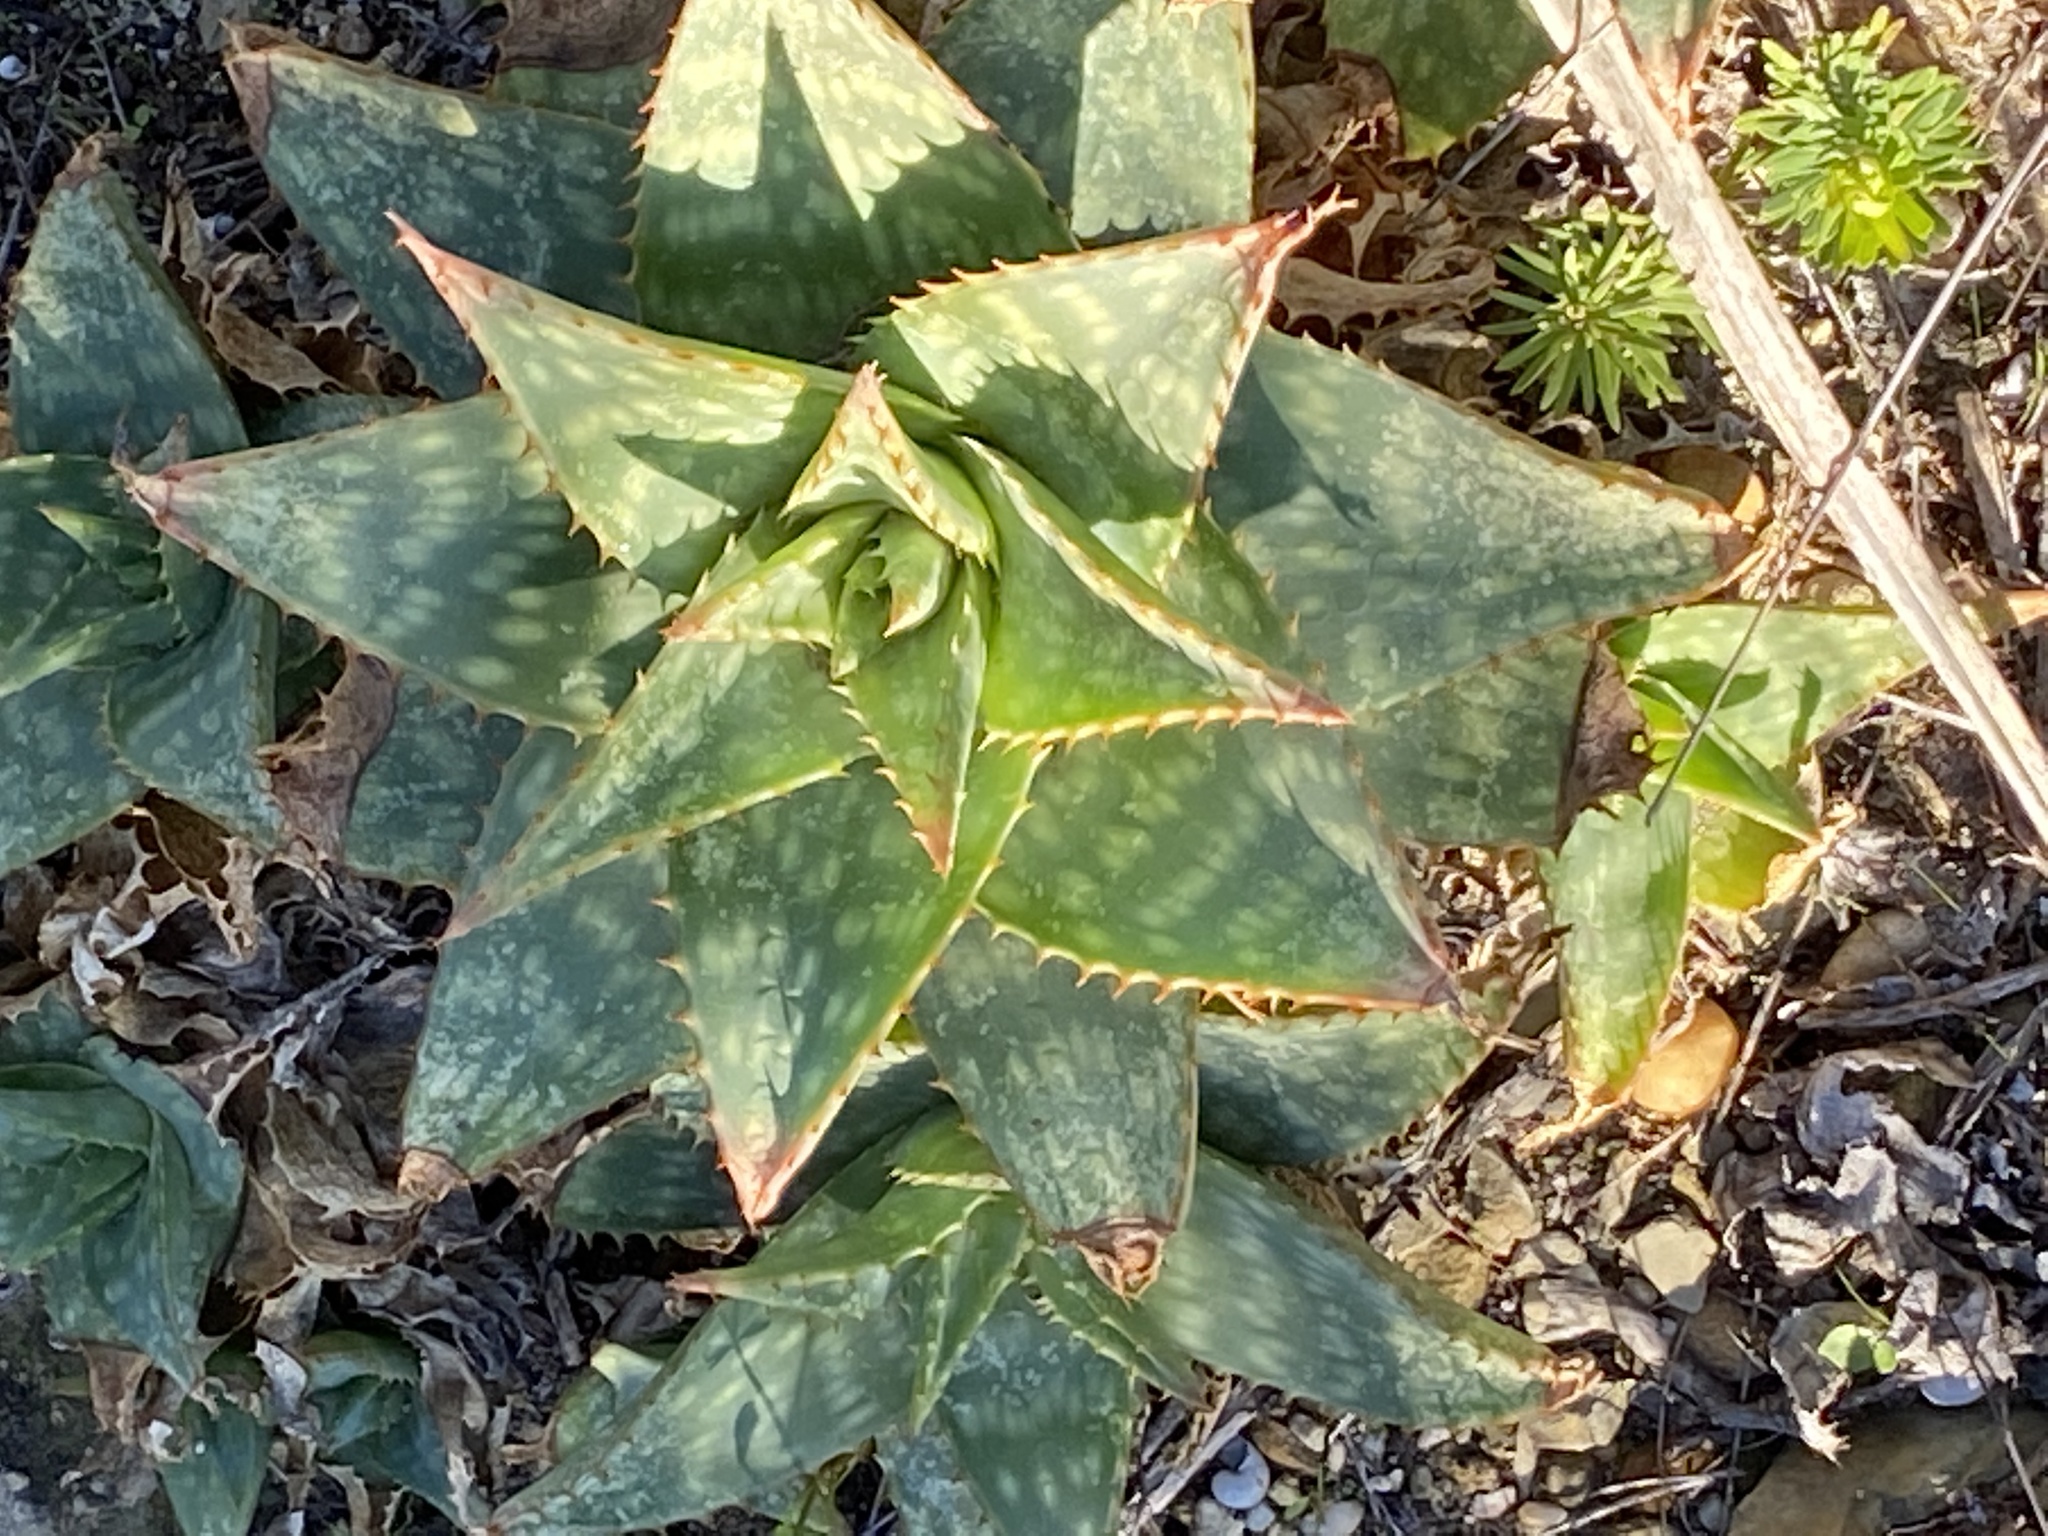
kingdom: Plantae
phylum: Tracheophyta
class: Liliopsida
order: Asparagales
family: Asphodelaceae
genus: Aloe
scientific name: Aloe maculata
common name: Broadleaf aloe
